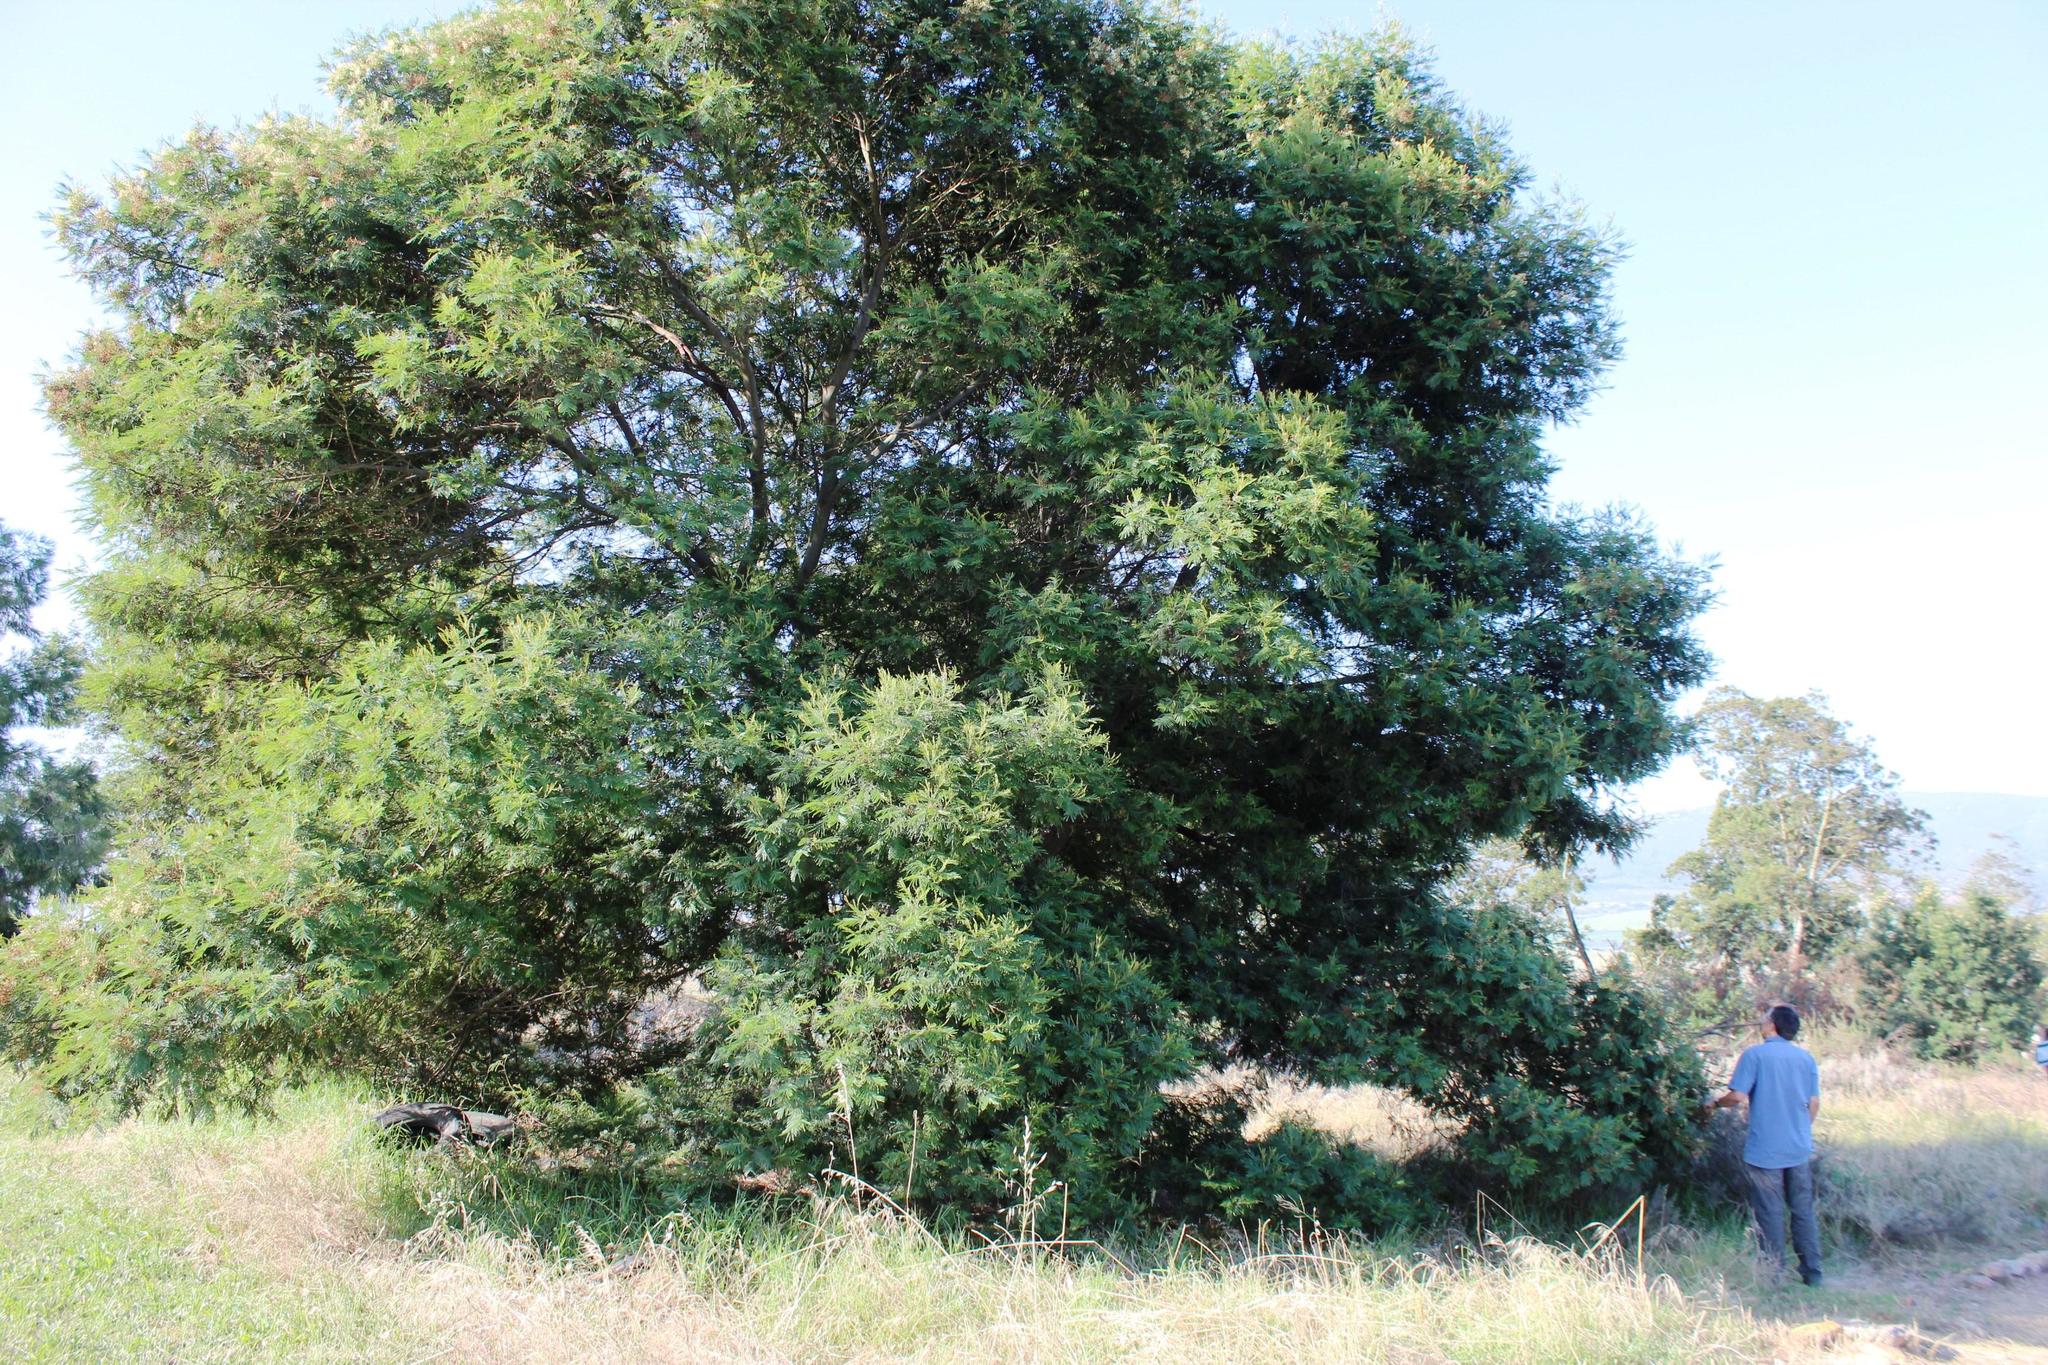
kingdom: Plantae
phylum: Tracheophyta
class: Magnoliopsida
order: Fabales
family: Fabaceae
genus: Acacia
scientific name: Acacia mearnsii
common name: Black wattle
